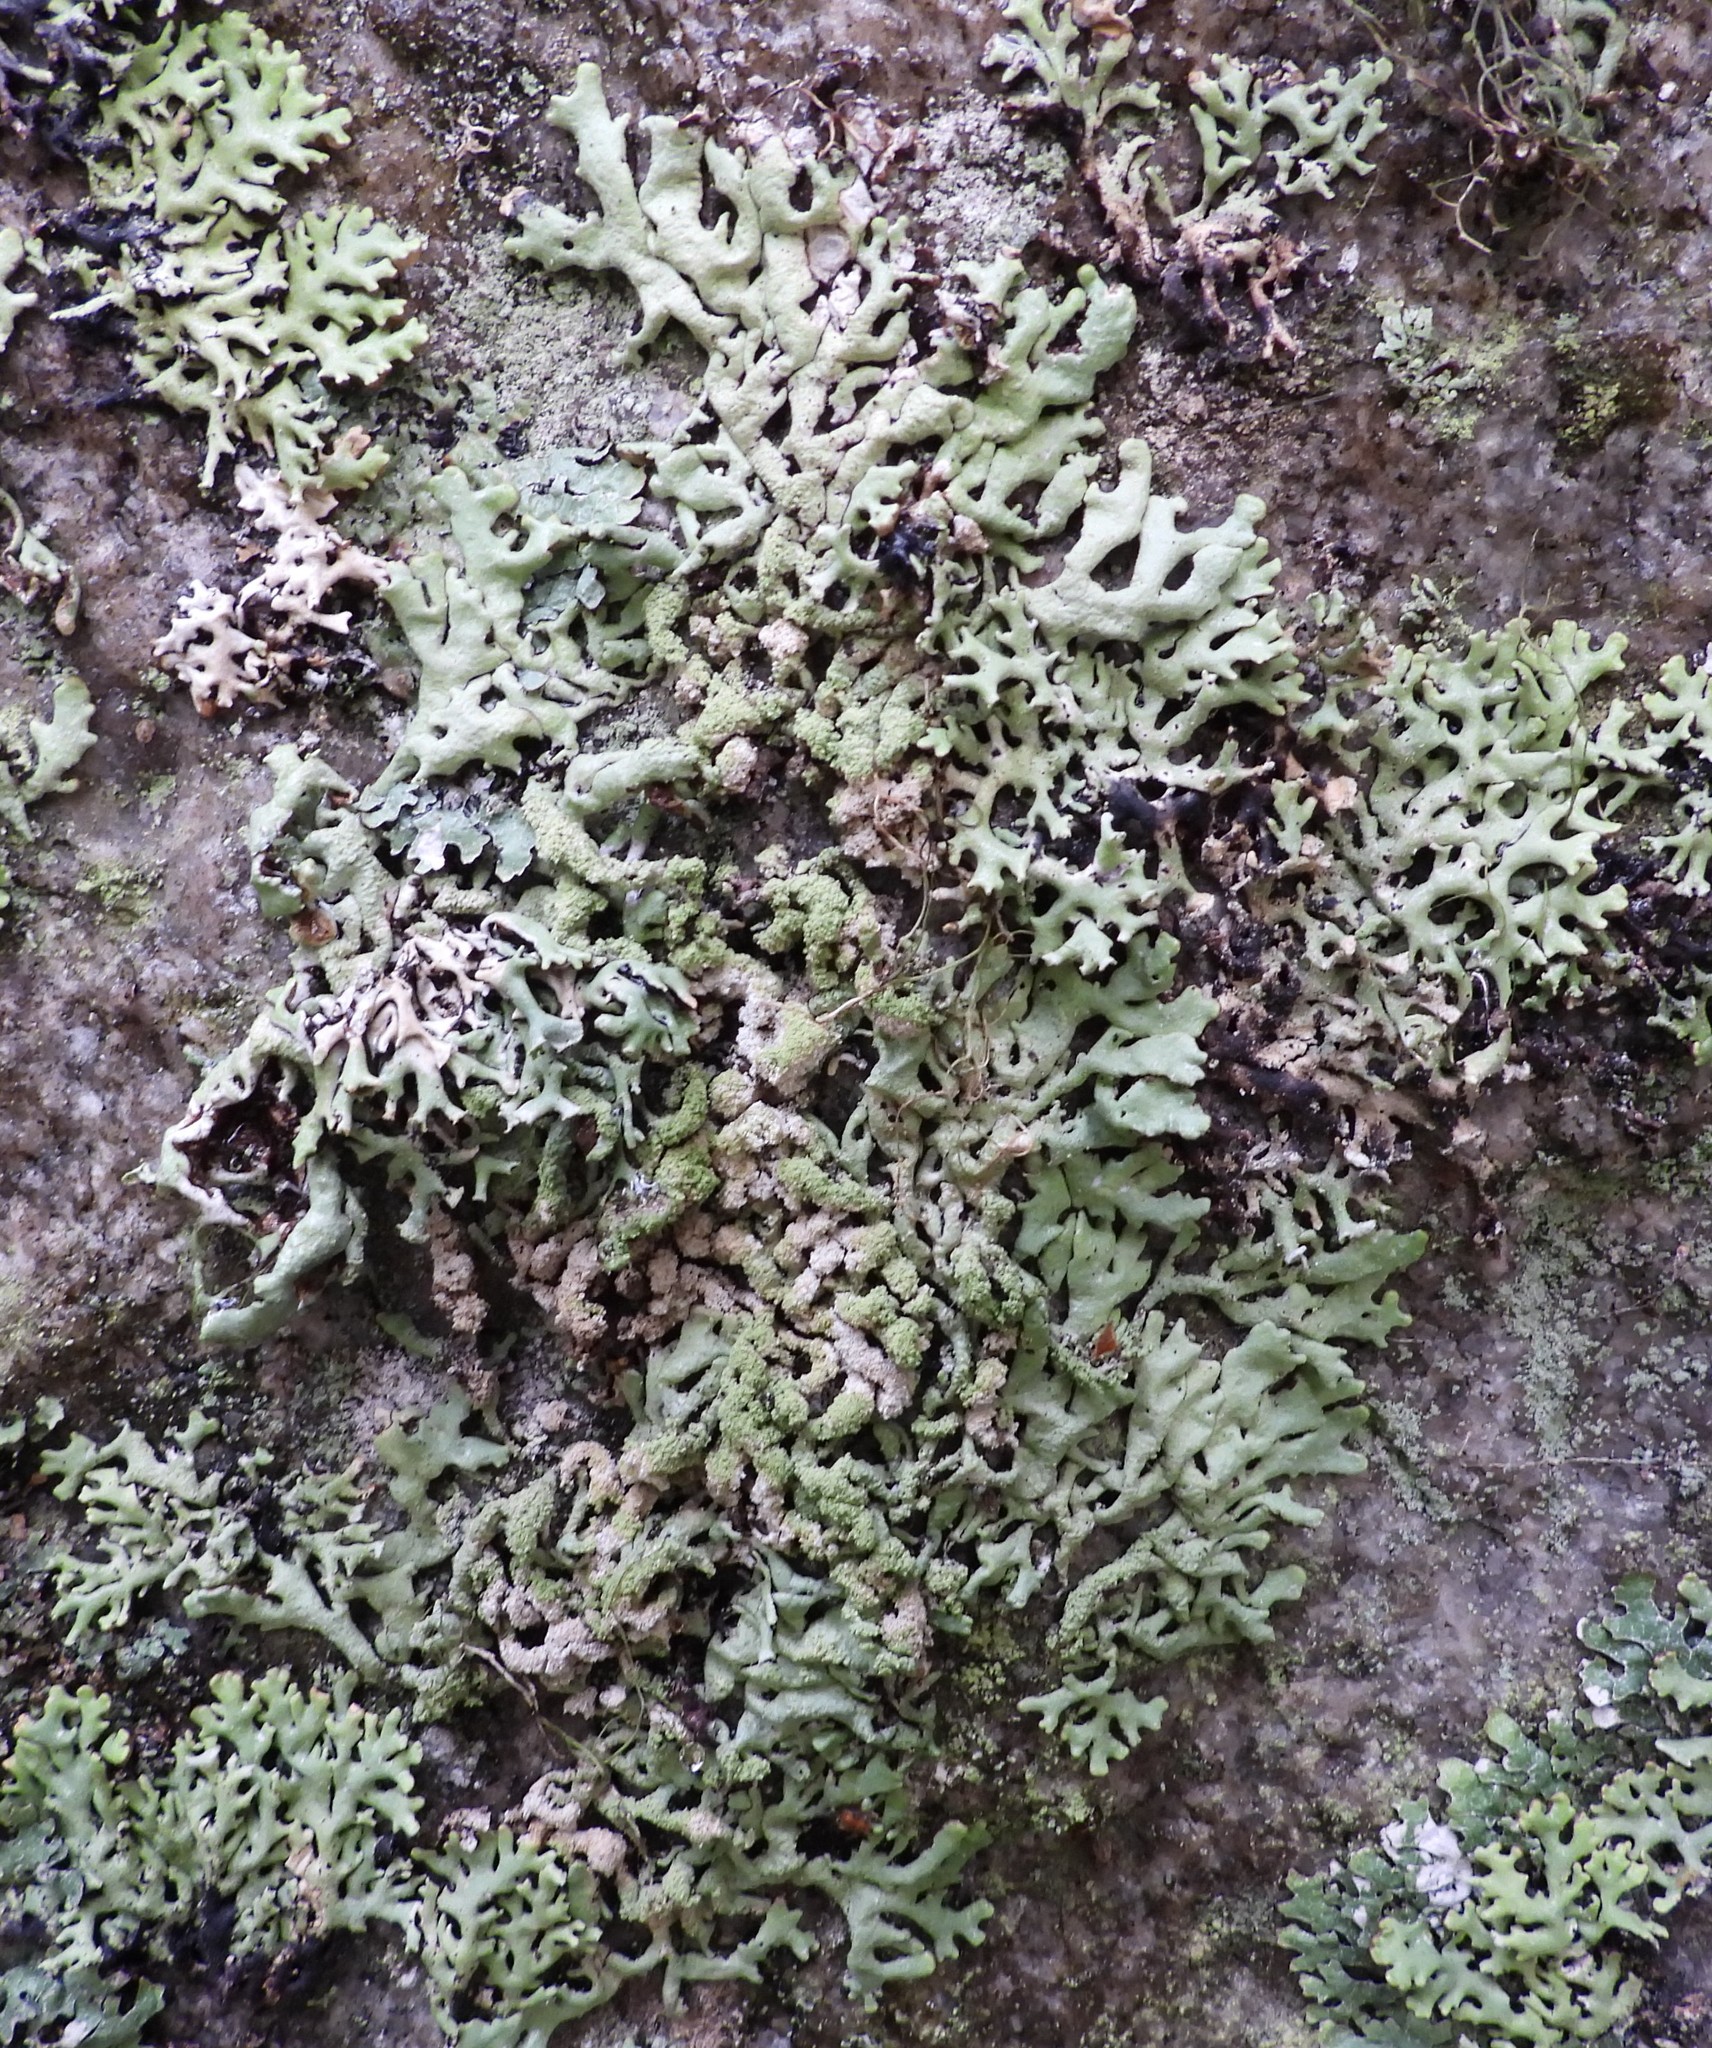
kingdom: Fungi
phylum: Ascomycota
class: Lecanoromycetes
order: Lecanorales
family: Parmeliaceae
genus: Hypogymnia
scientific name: Hypogymnia farinacea
